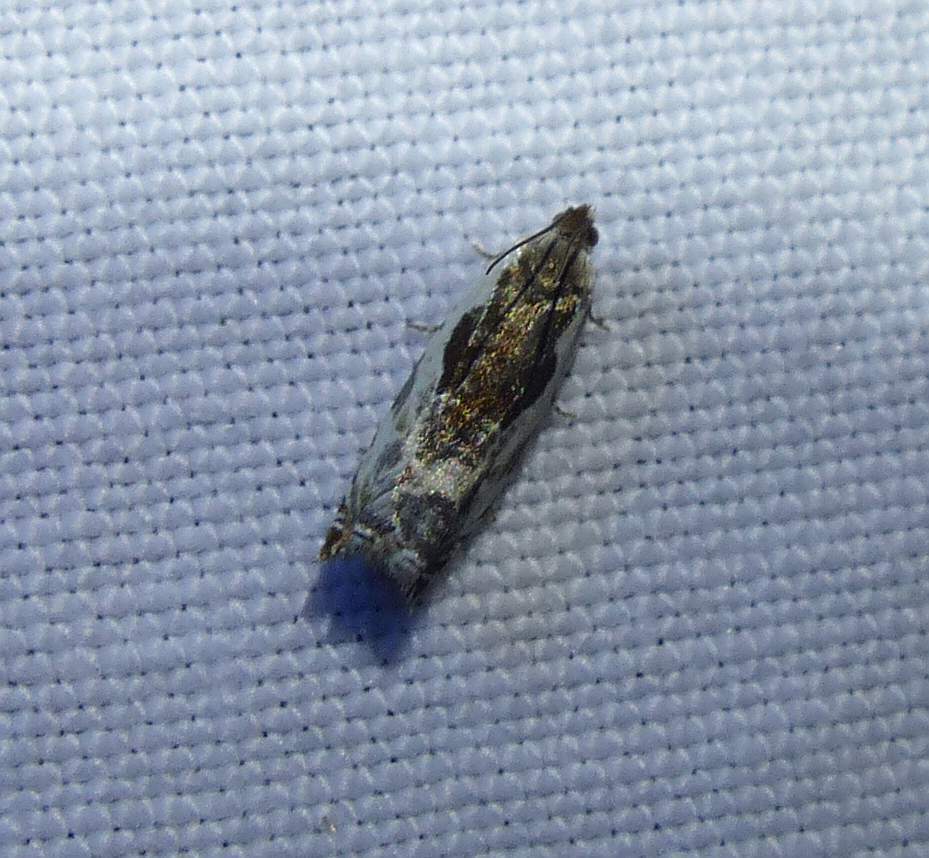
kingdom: Animalia
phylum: Arthropoda
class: Insecta
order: Lepidoptera
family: Tortricidae
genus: Ancylis
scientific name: Ancylis nubeculana
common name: Little cloud ancylis moth
